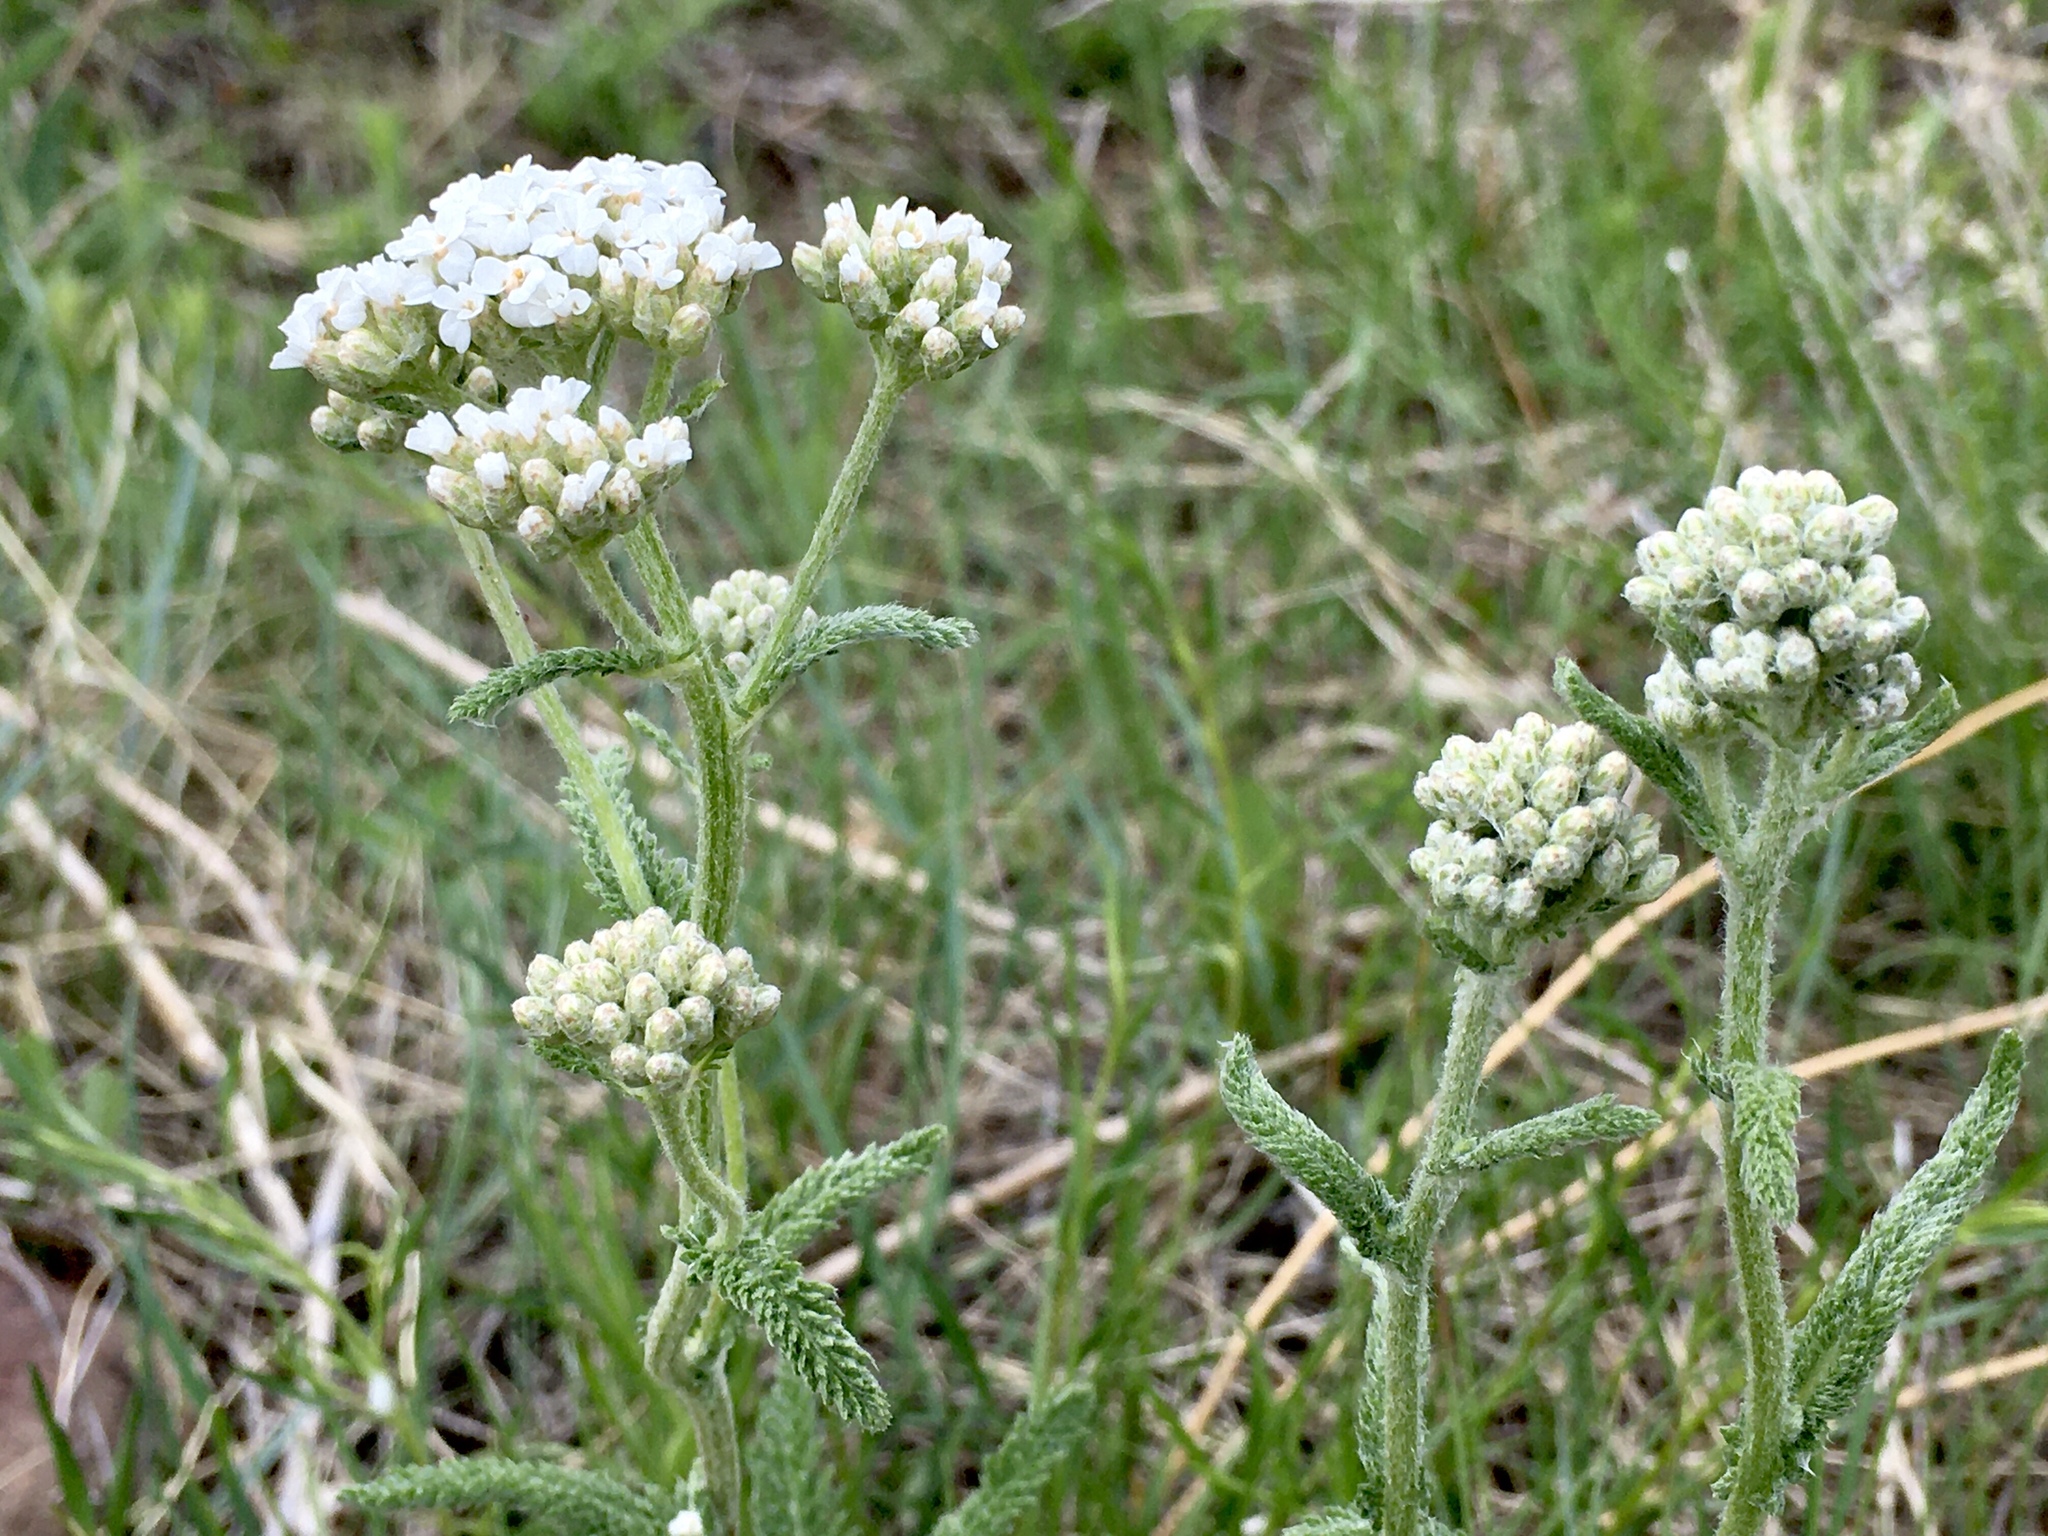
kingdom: Plantae
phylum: Tracheophyta
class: Magnoliopsida
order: Asterales
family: Asteraceae
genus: Achillea
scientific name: Achillea millefolium
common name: Yarrow
